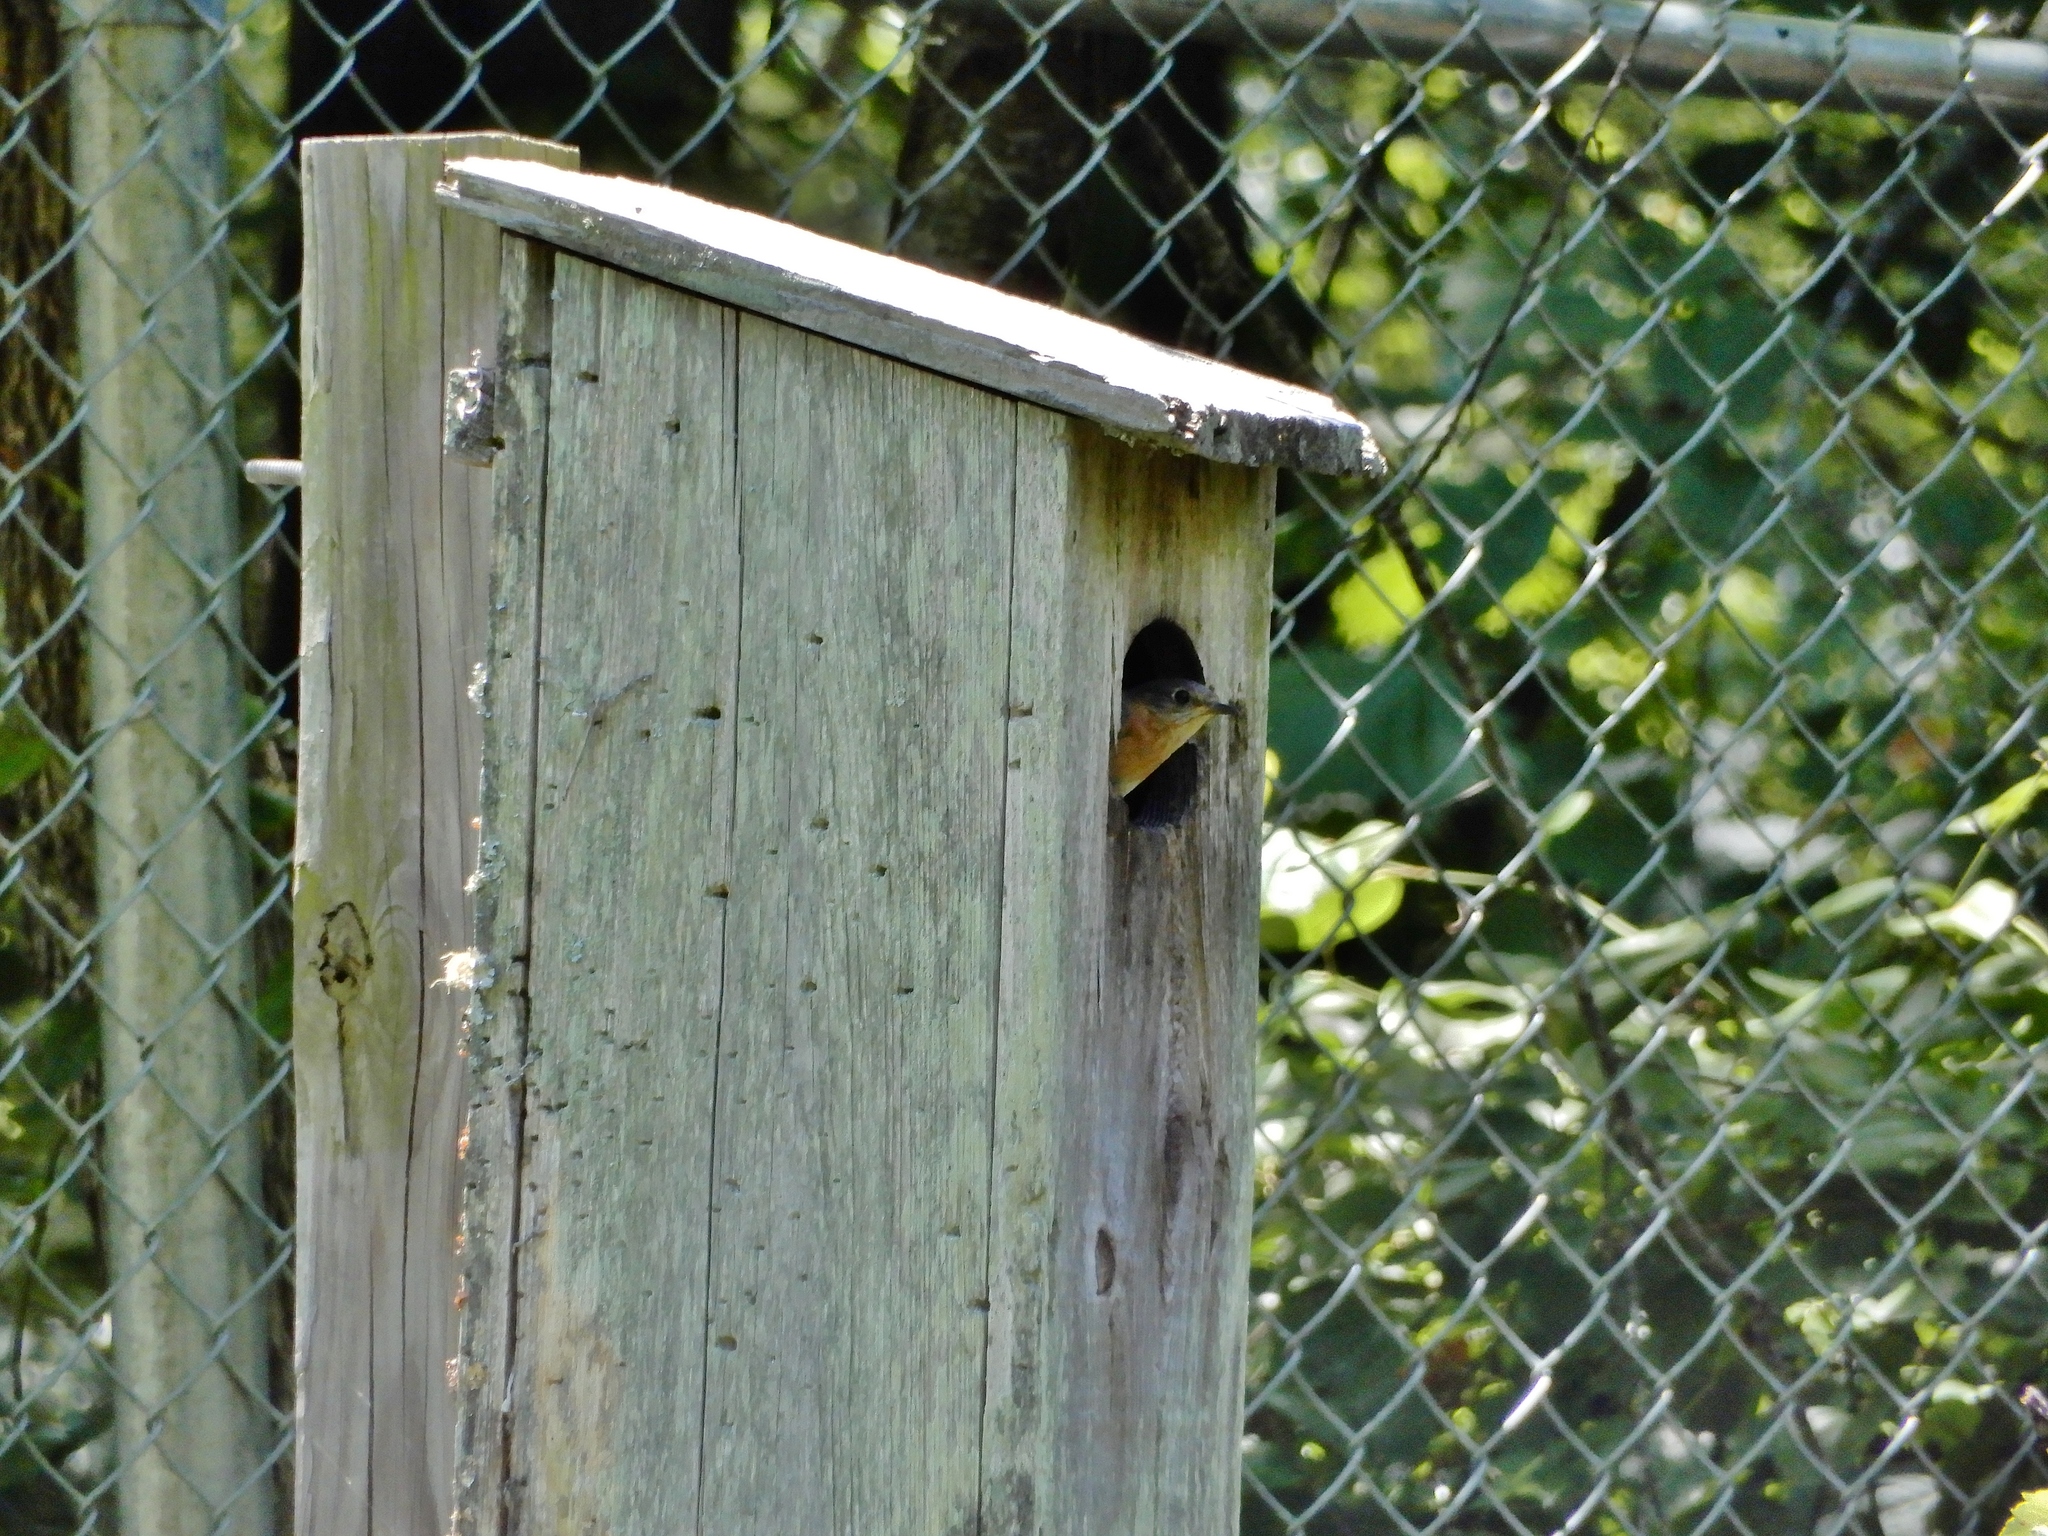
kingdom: Animalia
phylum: Chordata
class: Aves
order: Passeriformes
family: Turdidae
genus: Sialia
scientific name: Sialia sialis
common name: Eastern bluebird
